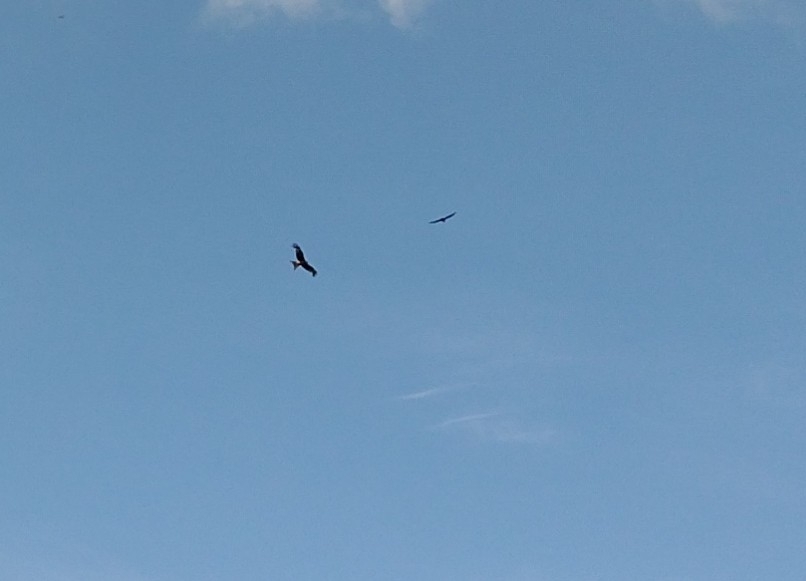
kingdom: Animalia
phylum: Chordata
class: Aves
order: Accipitriformes
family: Accipitridae
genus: Milvus
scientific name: Milvus milvus
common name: Red kite
